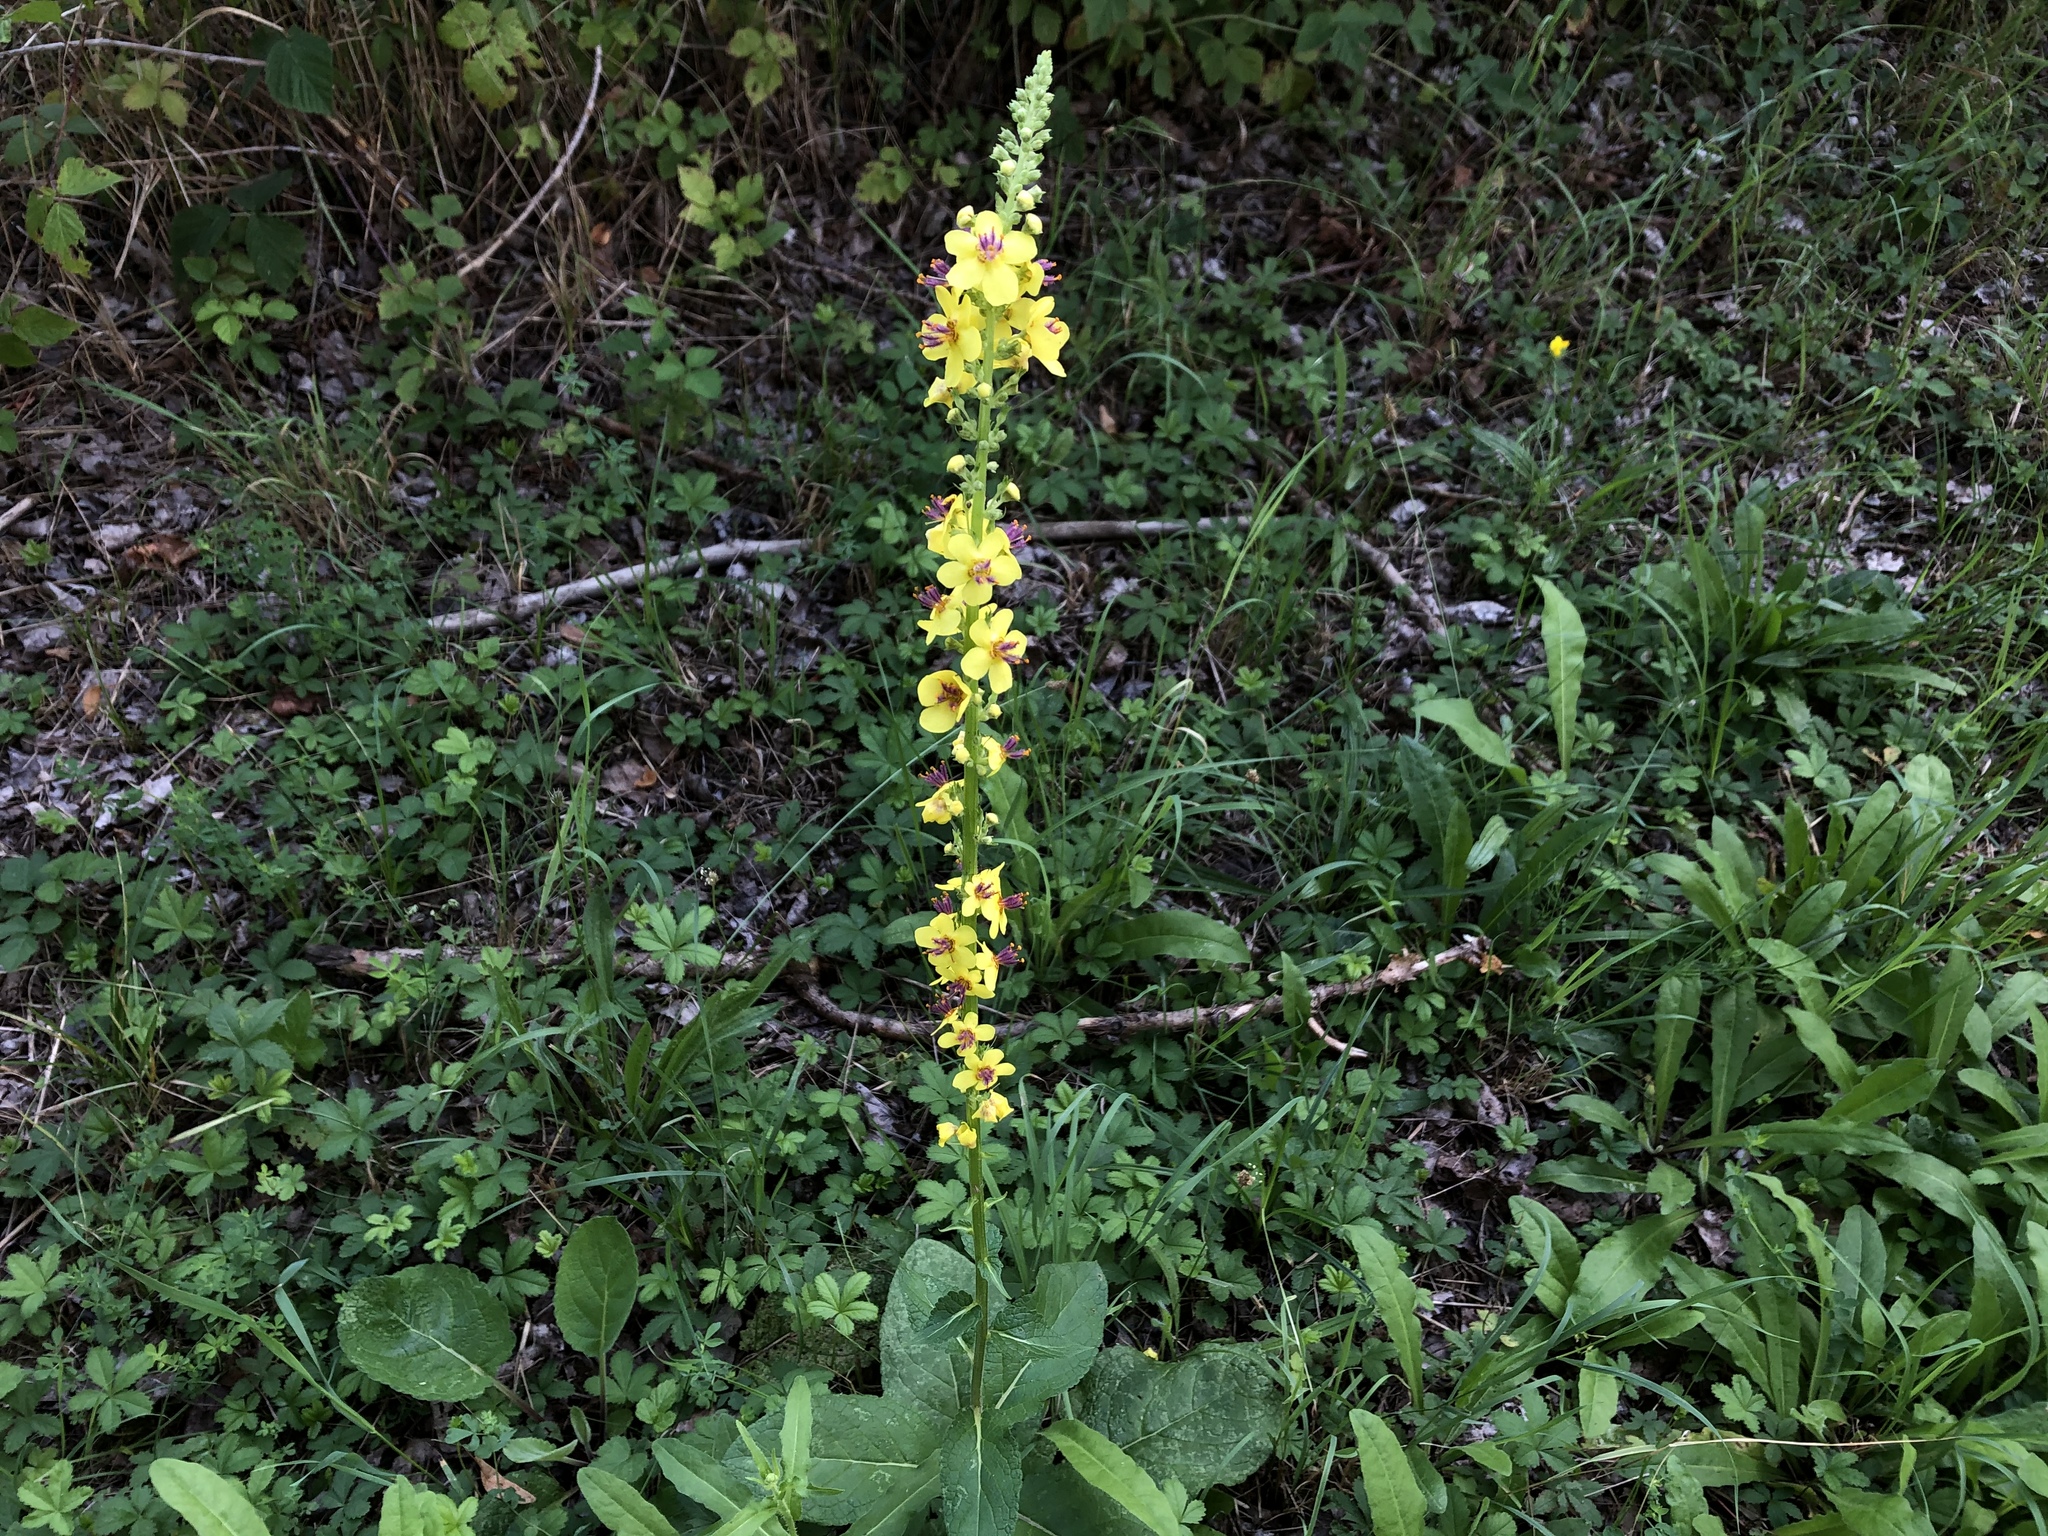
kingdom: Plantae
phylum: Tracheophyta
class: Magnoliopsida
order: Lamiales
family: Scrophulariaceae
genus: Verbascum
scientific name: Verbascum nigrum
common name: Dark mullein
